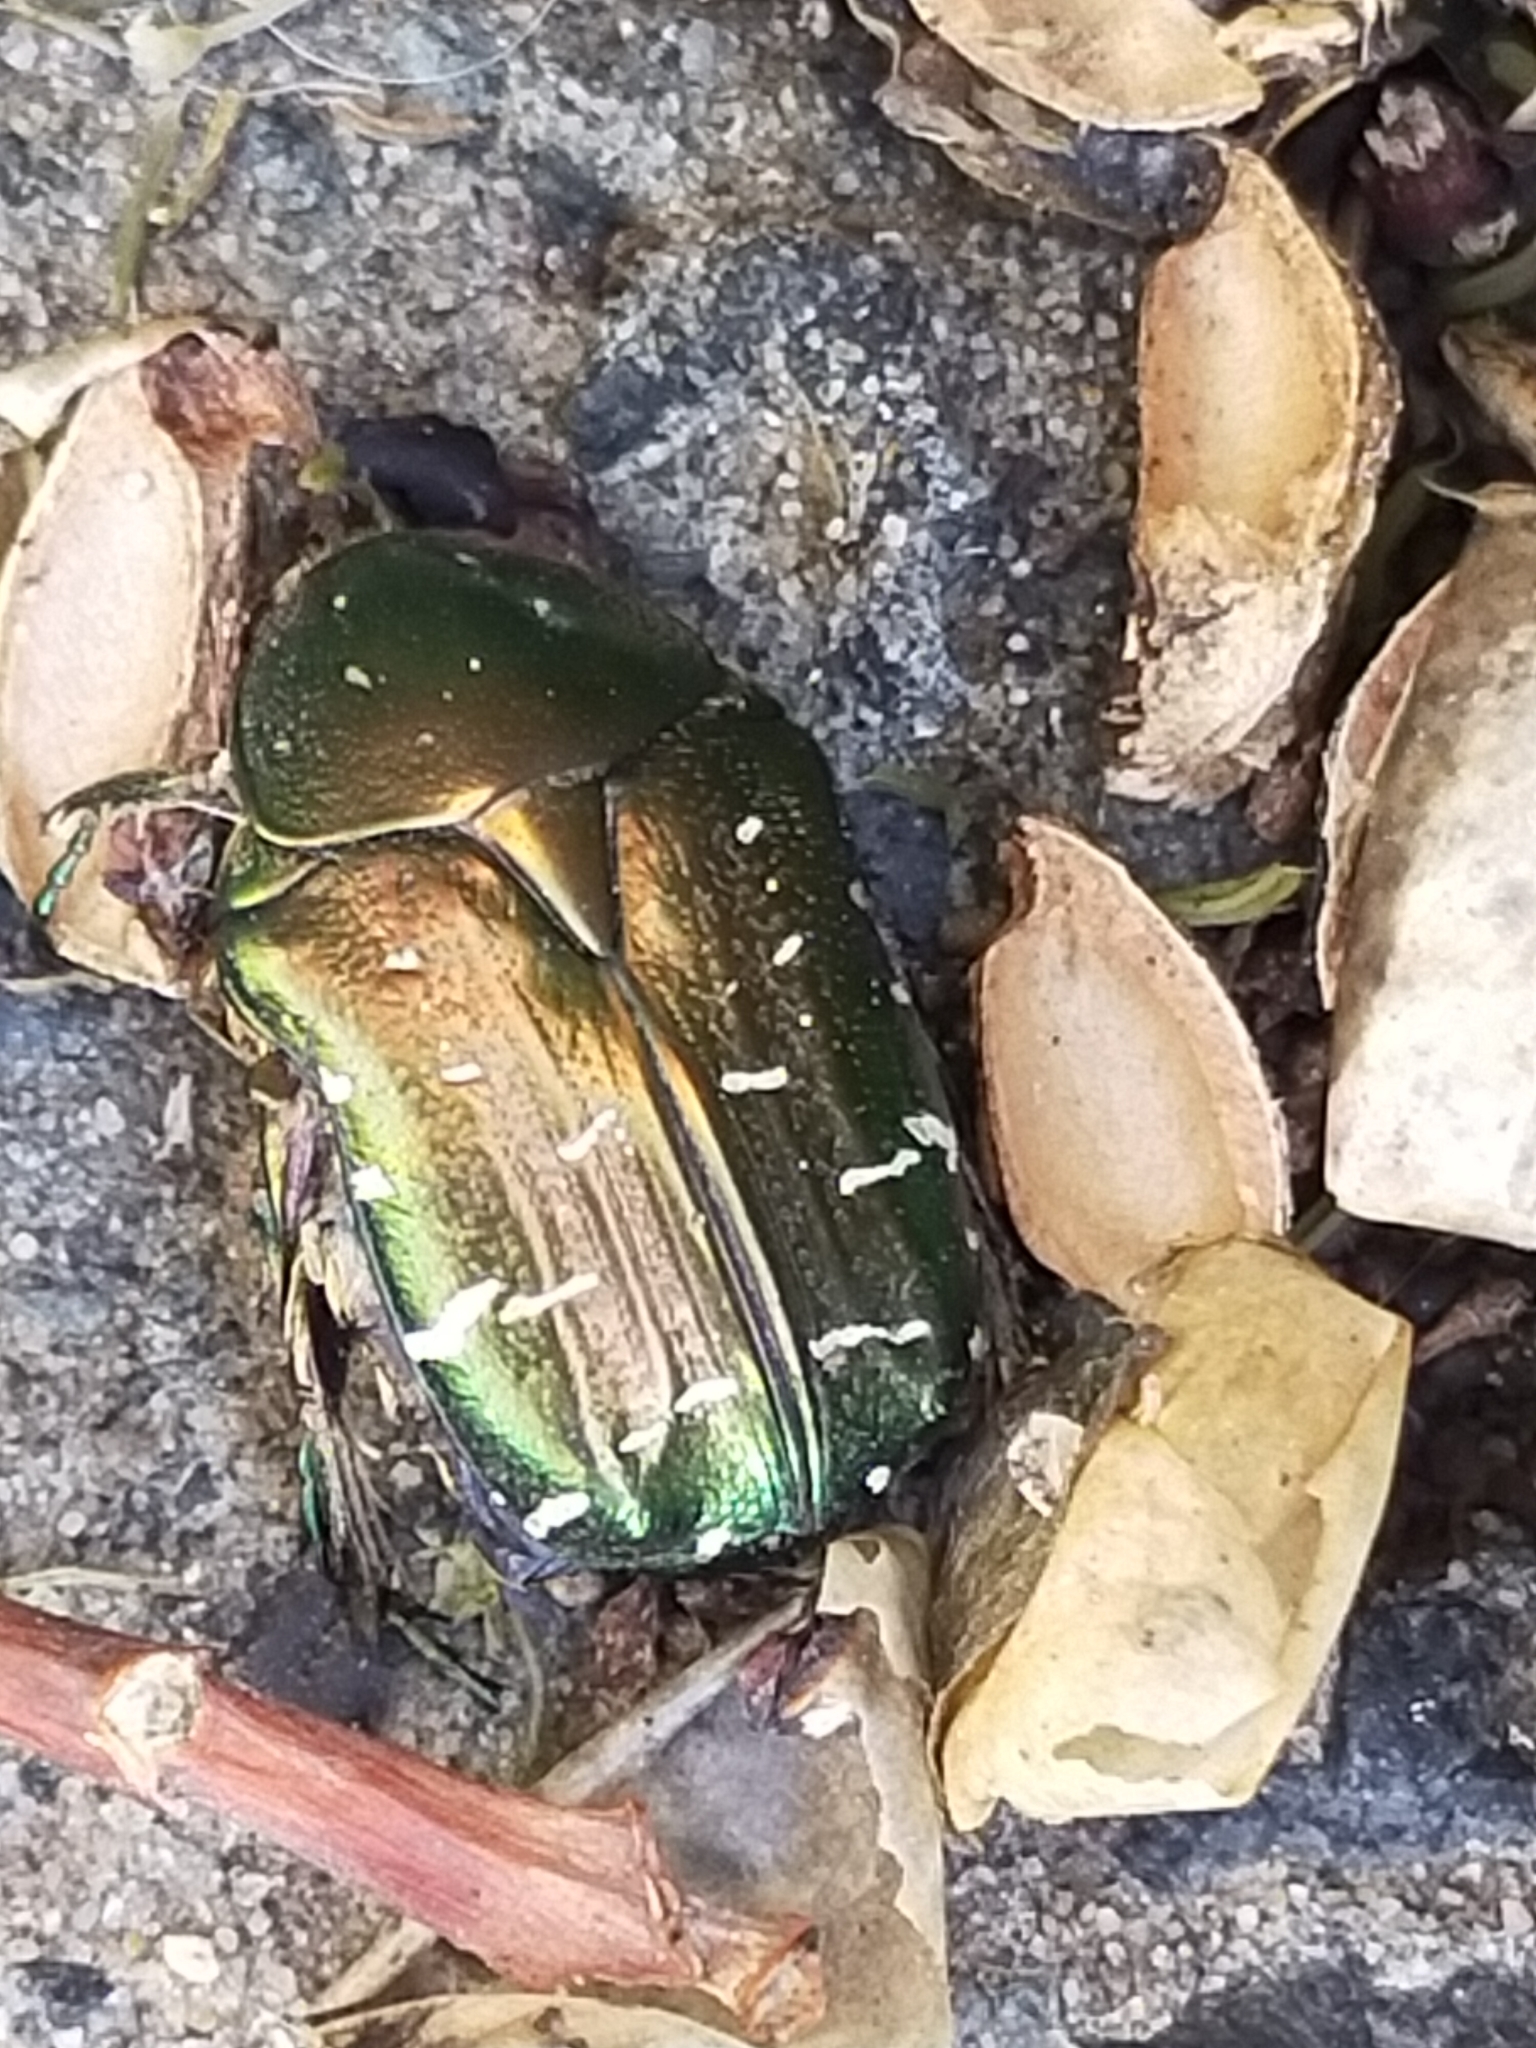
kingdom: Animalia
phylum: Arthropoda
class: Insecta
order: Coleoptera
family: Scarabaeidae
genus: Cetonia
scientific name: Cetonia aurata
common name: Rose chafer
